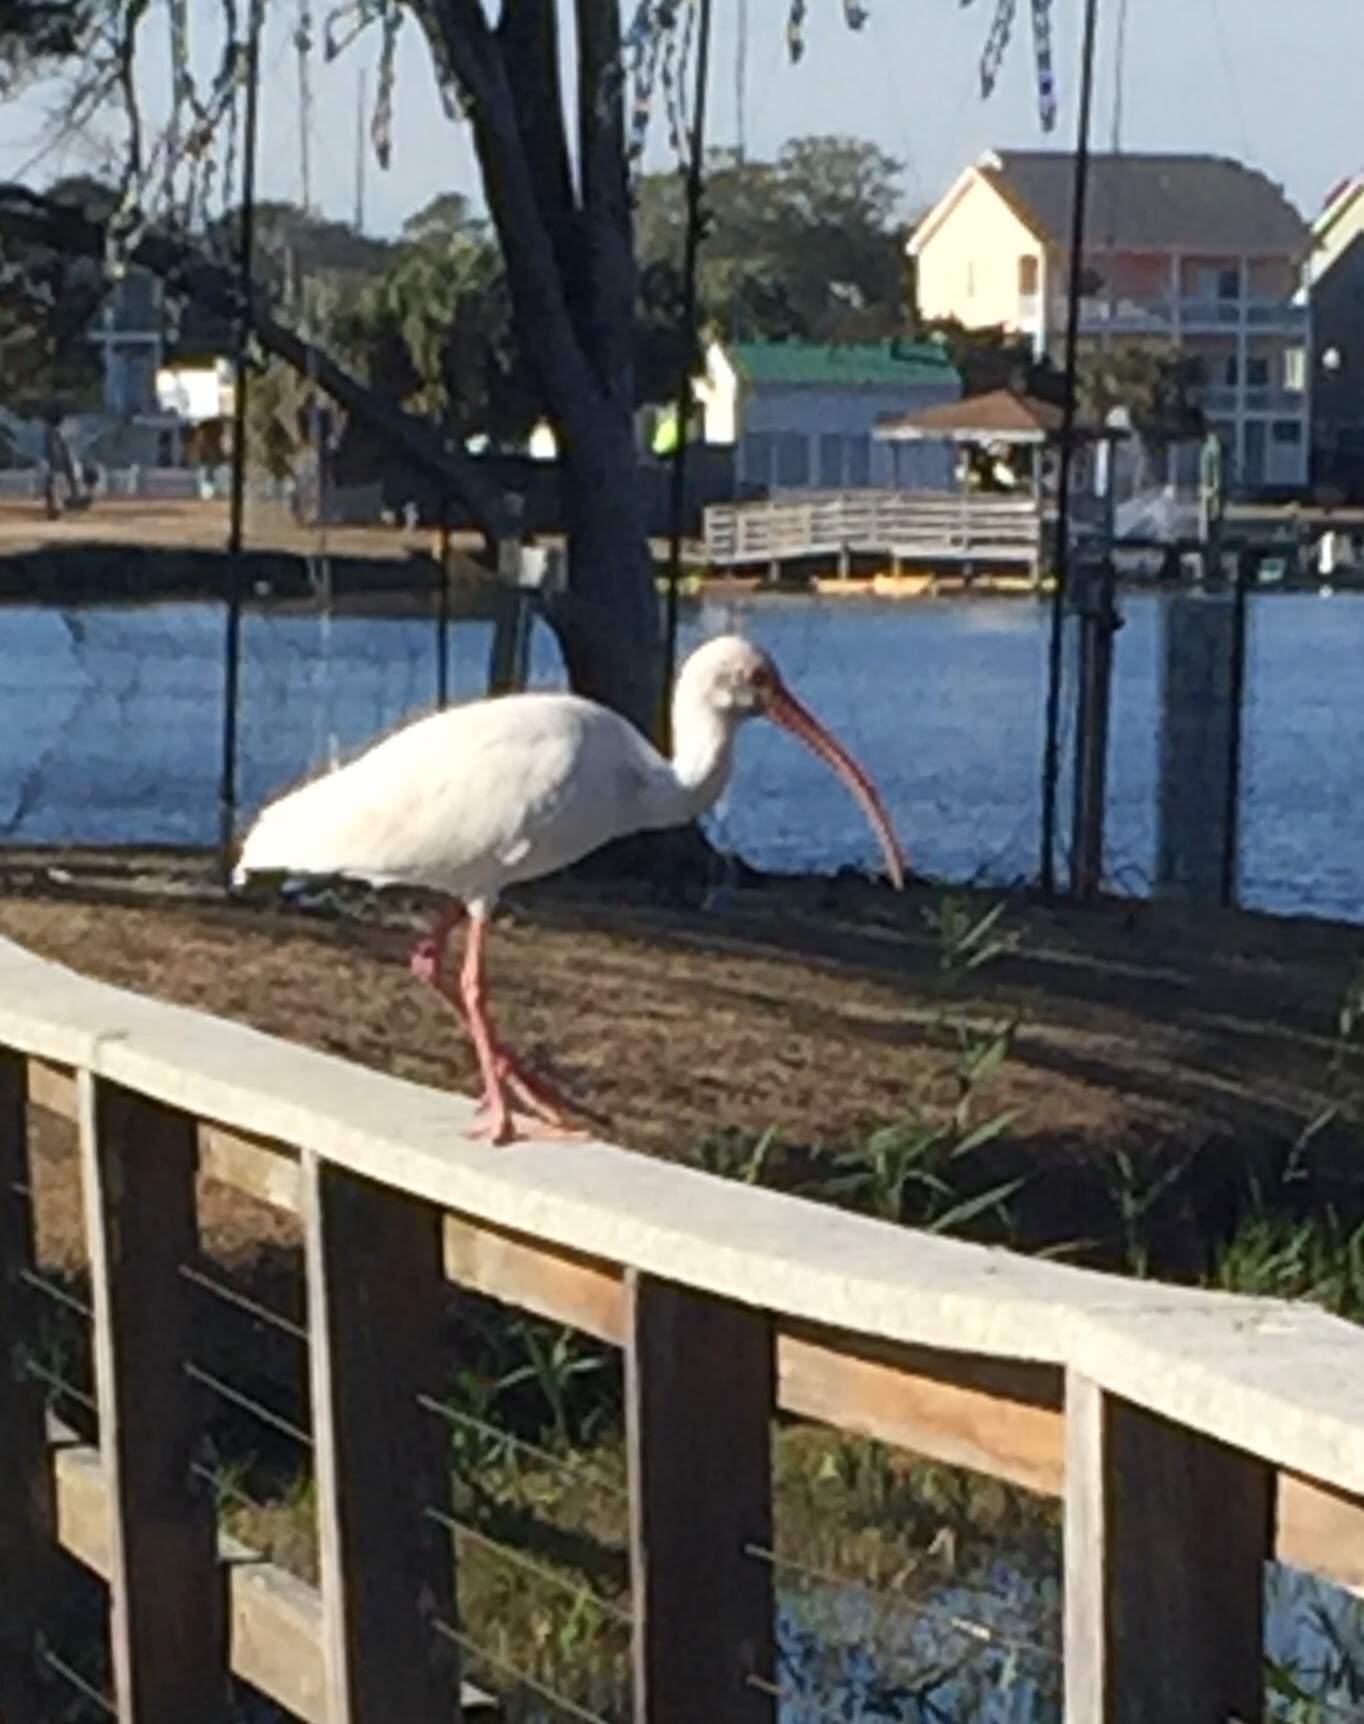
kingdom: Animalia
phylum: Chordata
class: Aves
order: Pelecaniformes
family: Threskiornithidae
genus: Eudocimus
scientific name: Eudocimus albus
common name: White ibis
